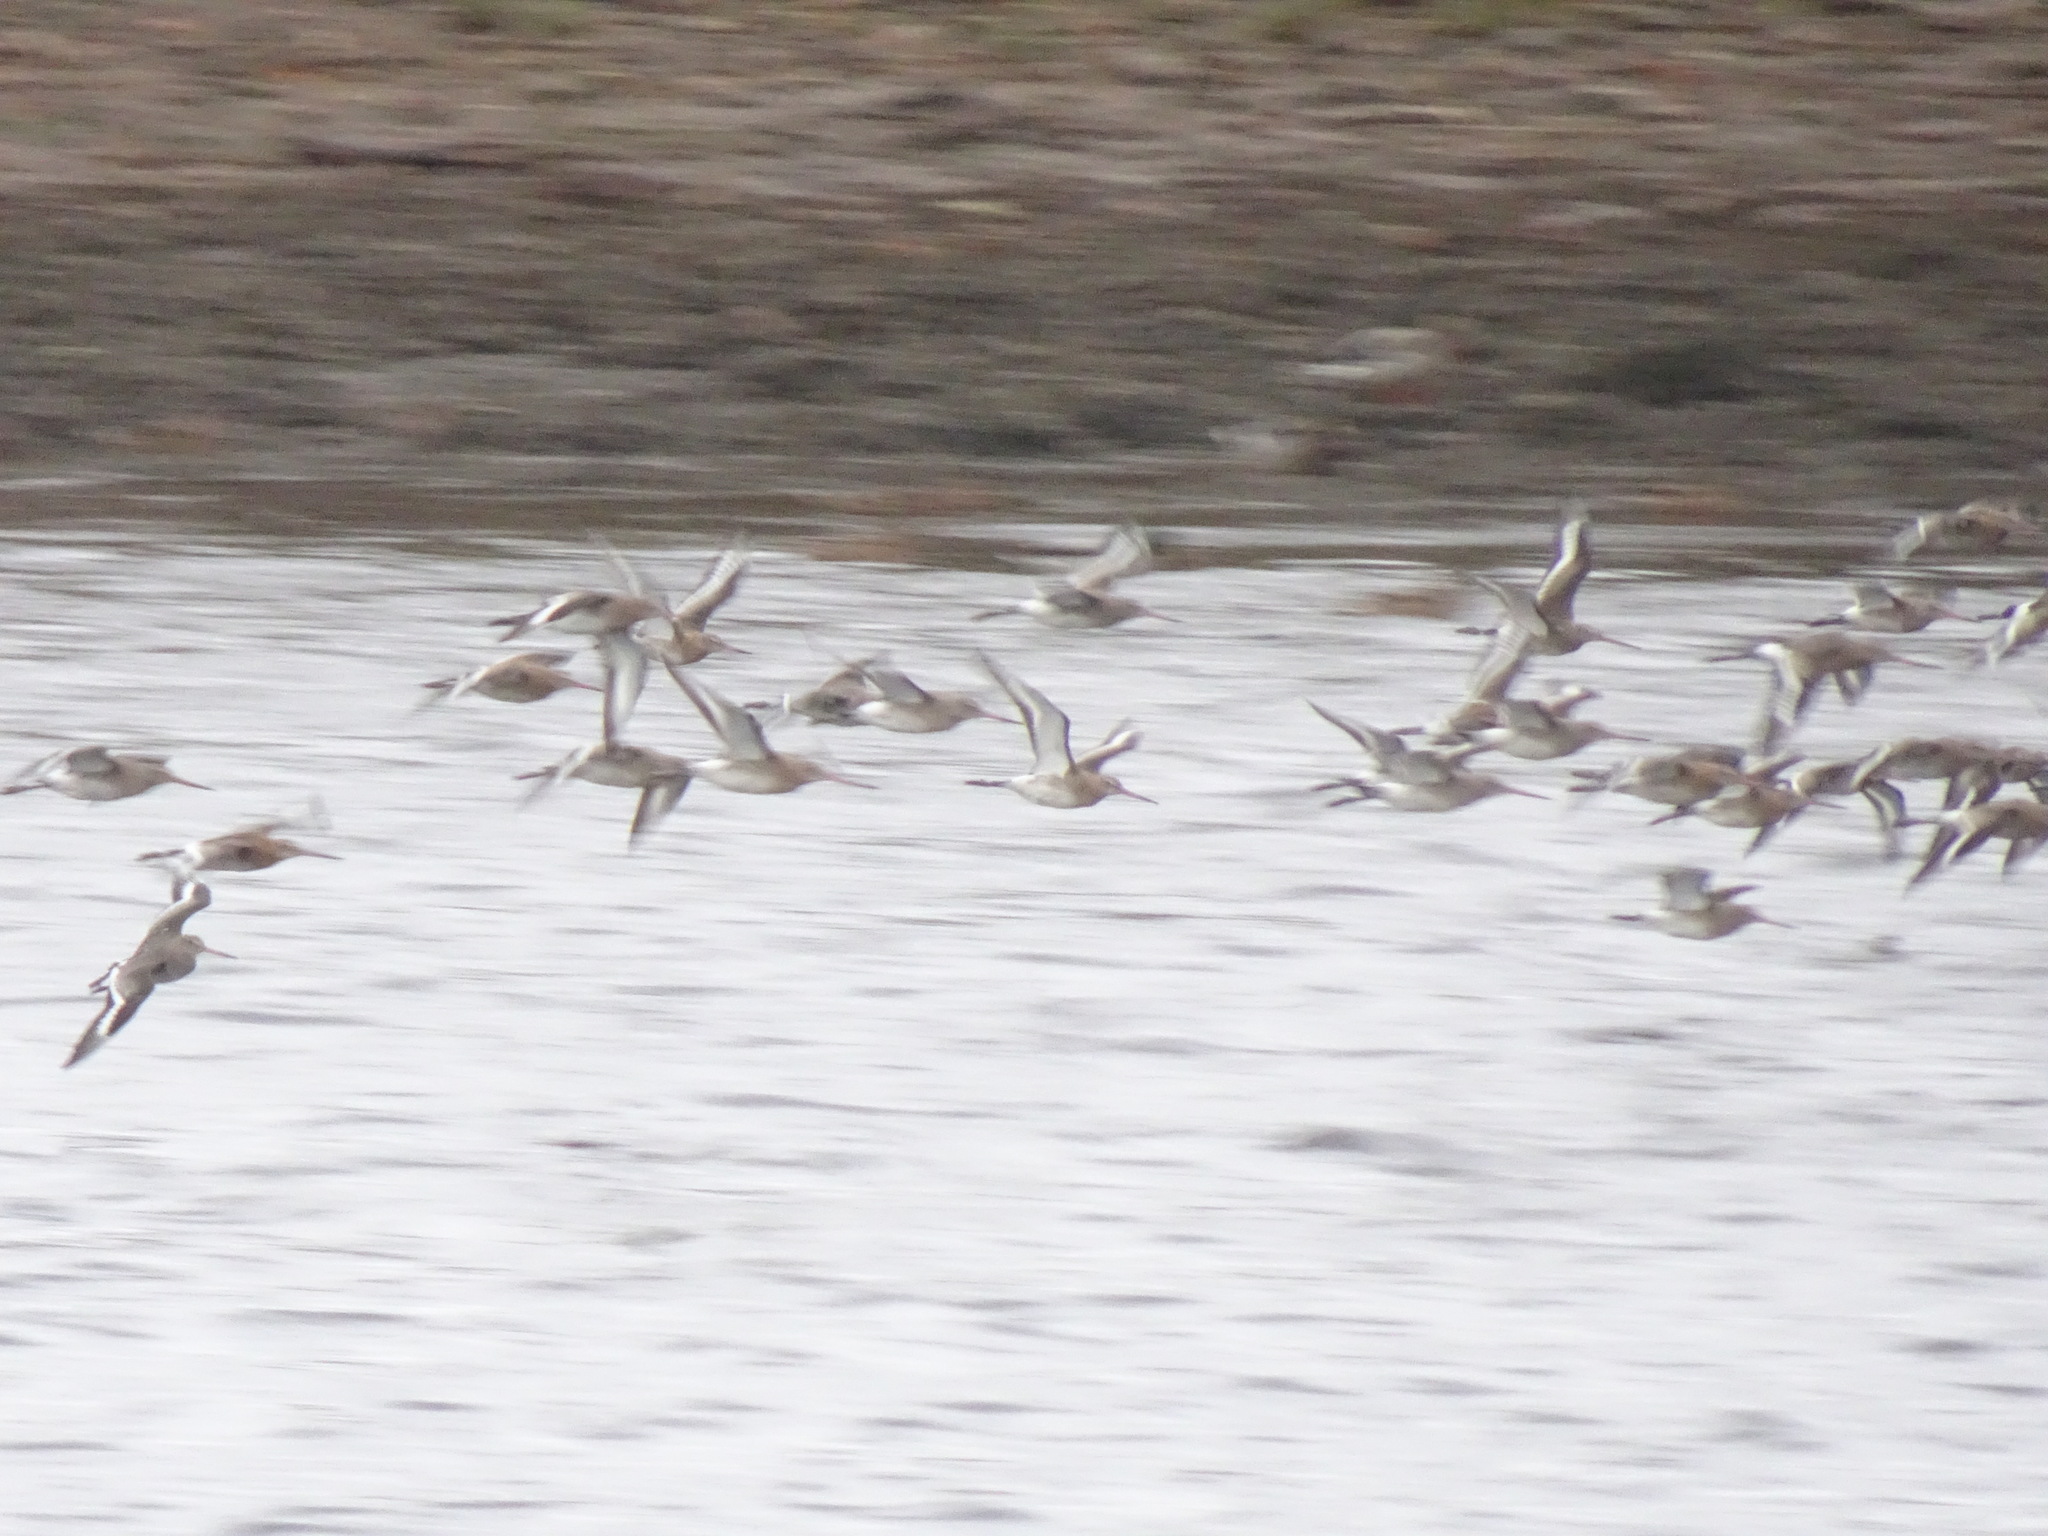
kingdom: Animalia
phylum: Chordata
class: Aves
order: Charadriiformes
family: Scolopacidae
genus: Limosa
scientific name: Limosa limosa
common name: Black-tailed godwit
